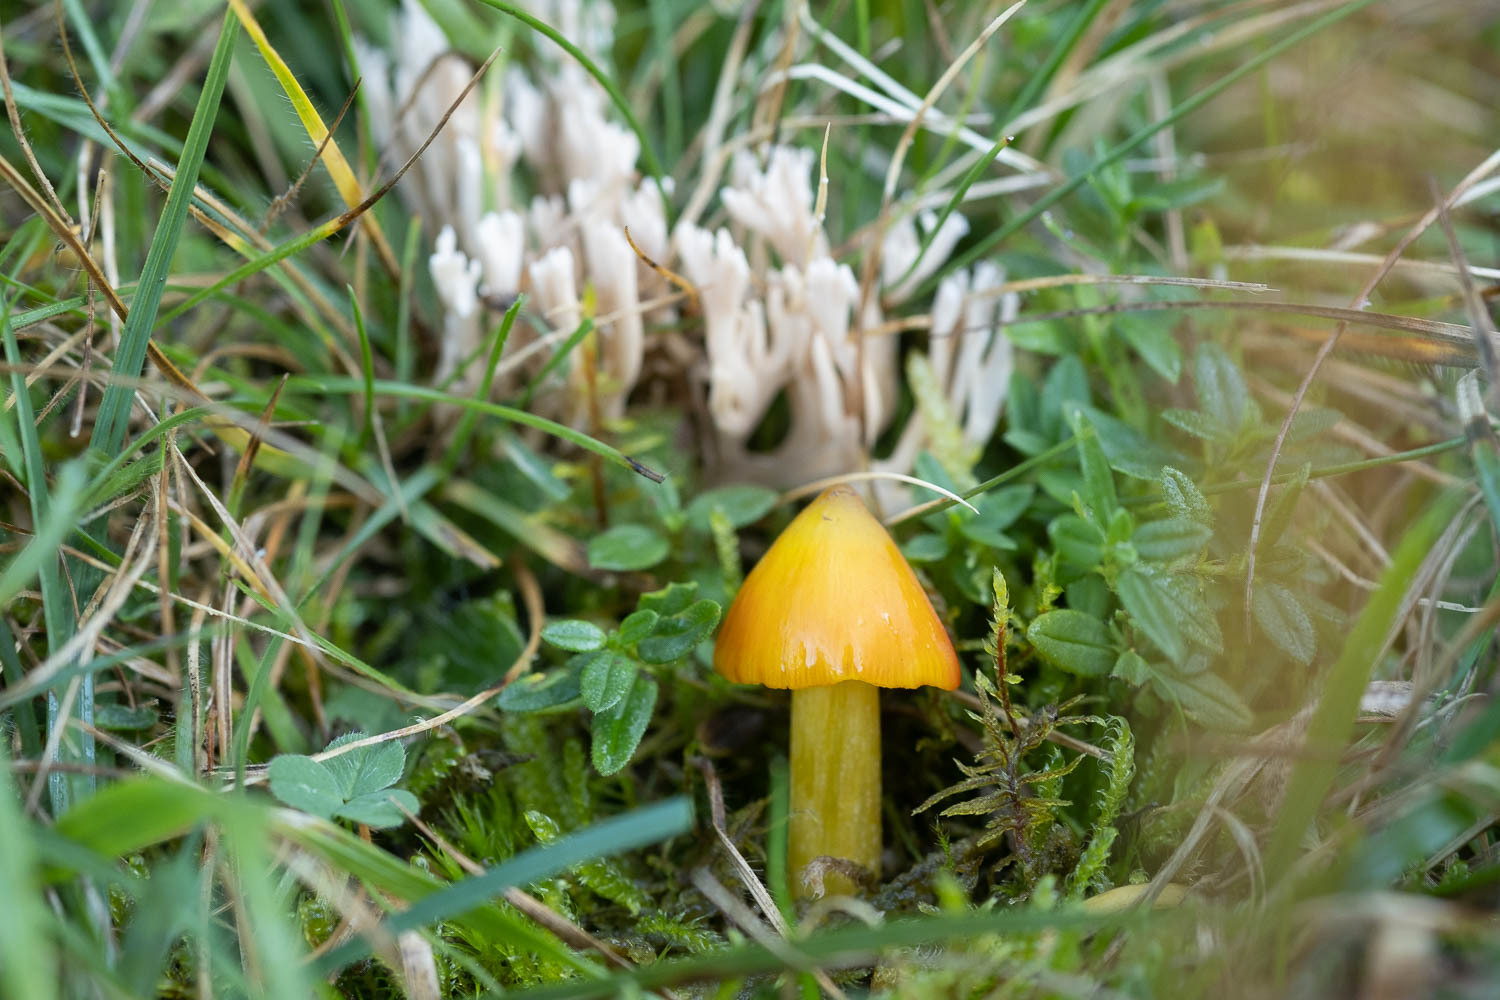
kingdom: Fungi
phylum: Basidiomycota
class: Agaricomycetes
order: Agaricales
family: Hygrophoraceae
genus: Hygrocybe
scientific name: Hygrocybe conica
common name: Blackening wax-cap
